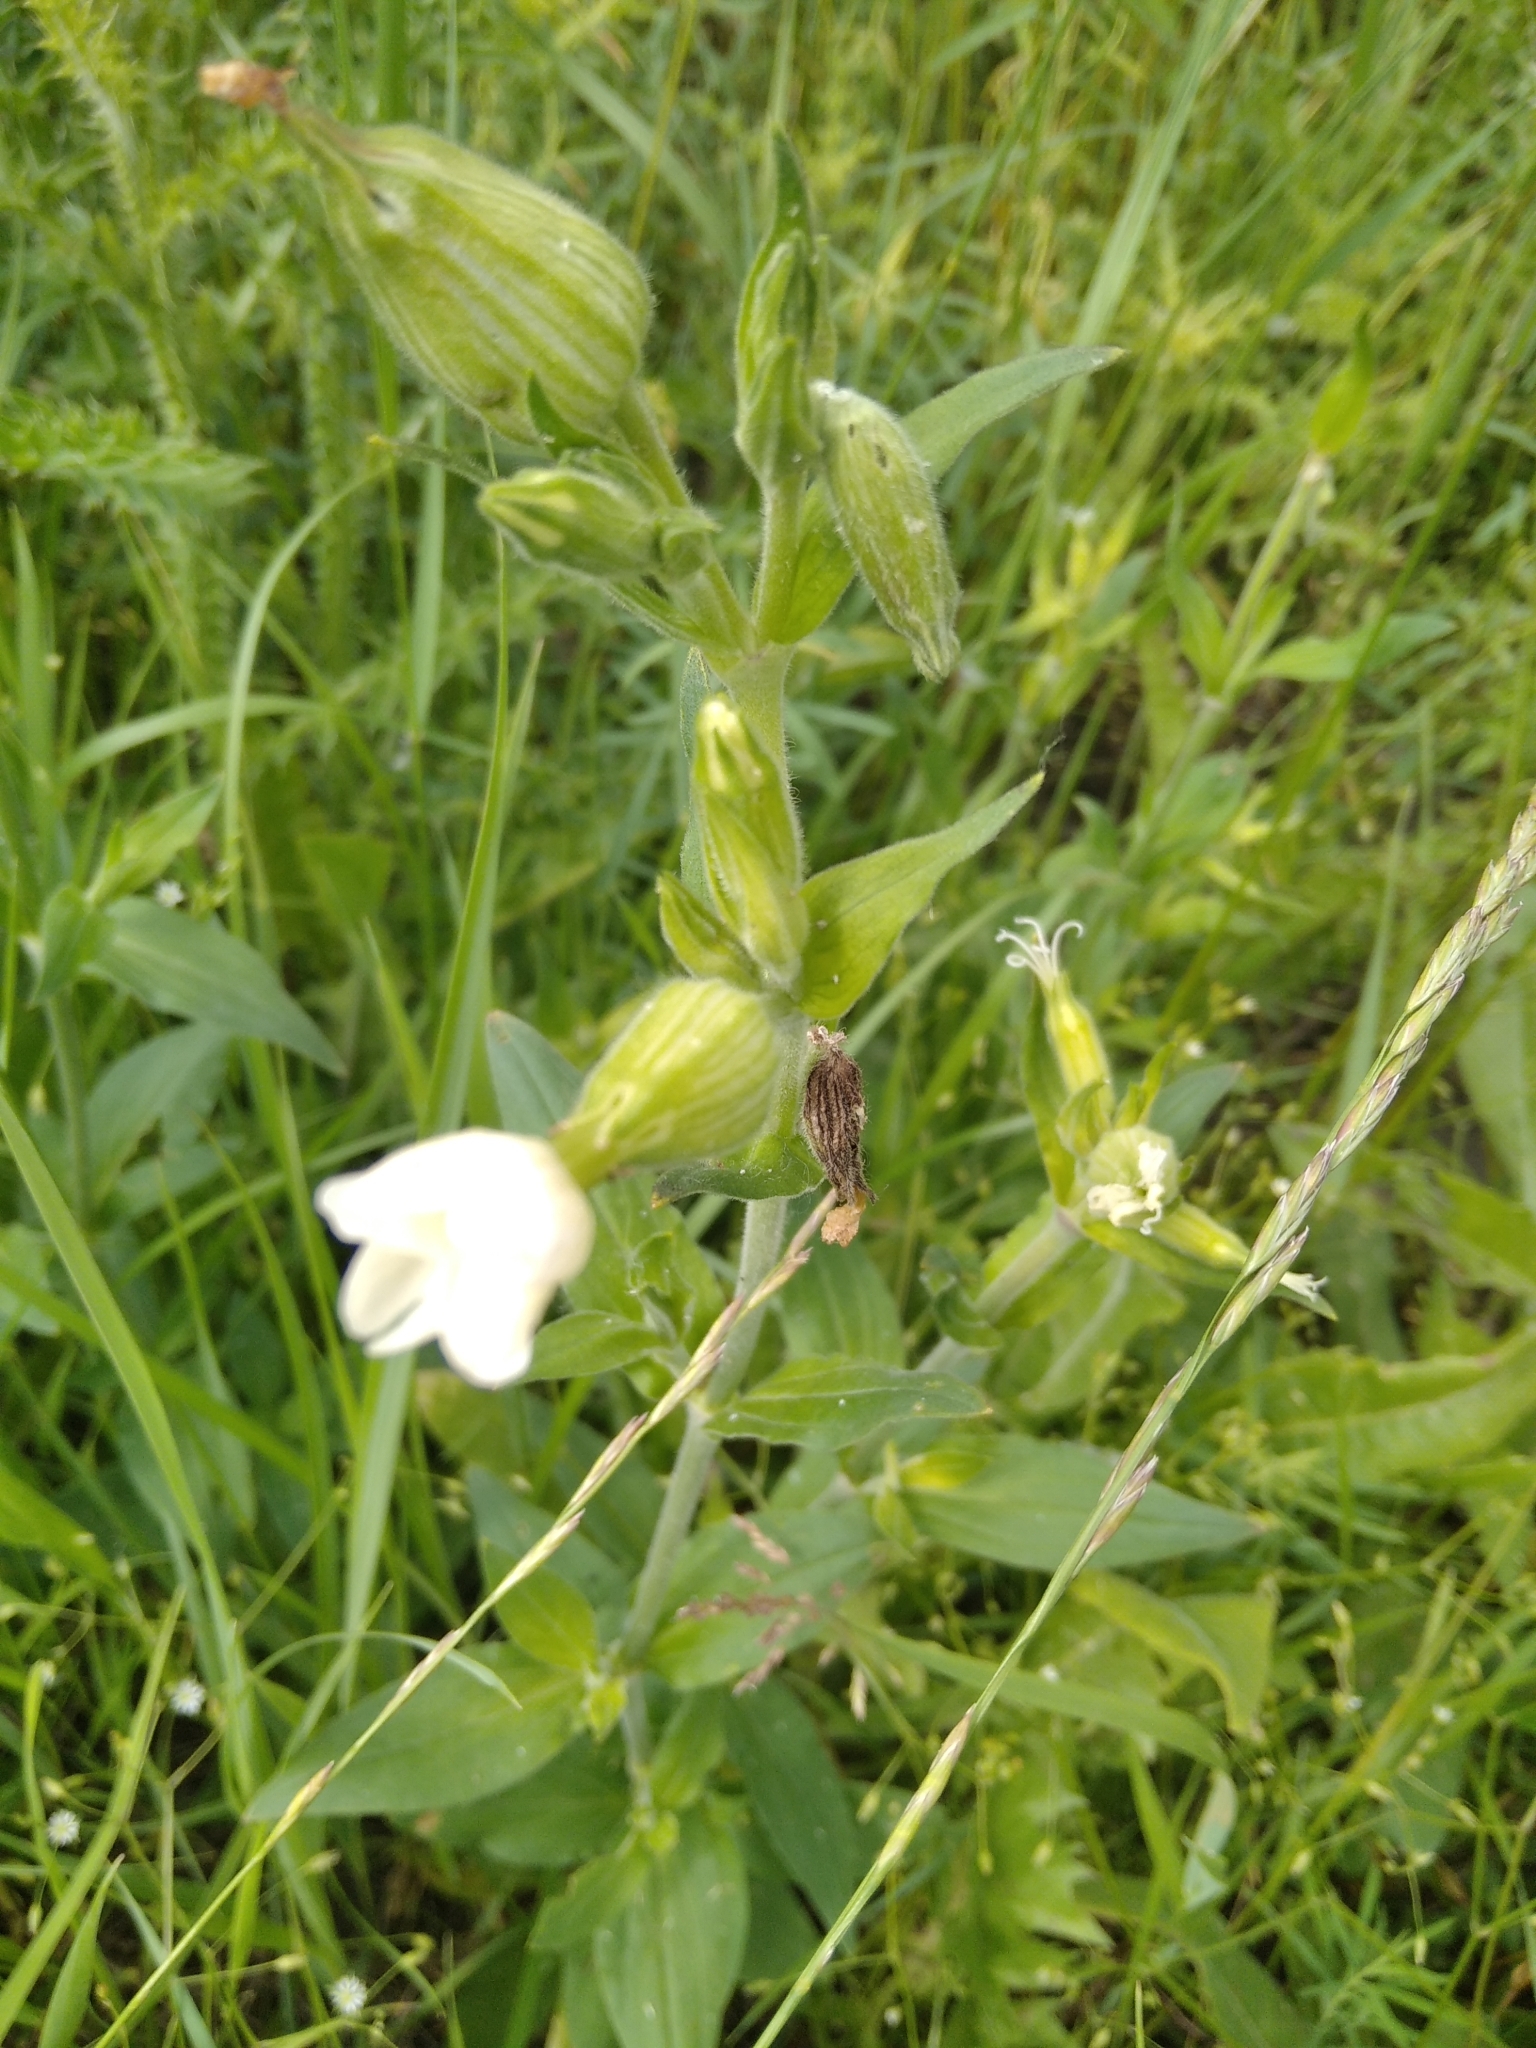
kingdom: Plantae
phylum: Tracheophyta
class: Magnoliopsida
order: Caryophyllales
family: Caryophyllaceae
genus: Silene
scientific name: Silene latifolia
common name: White campion
